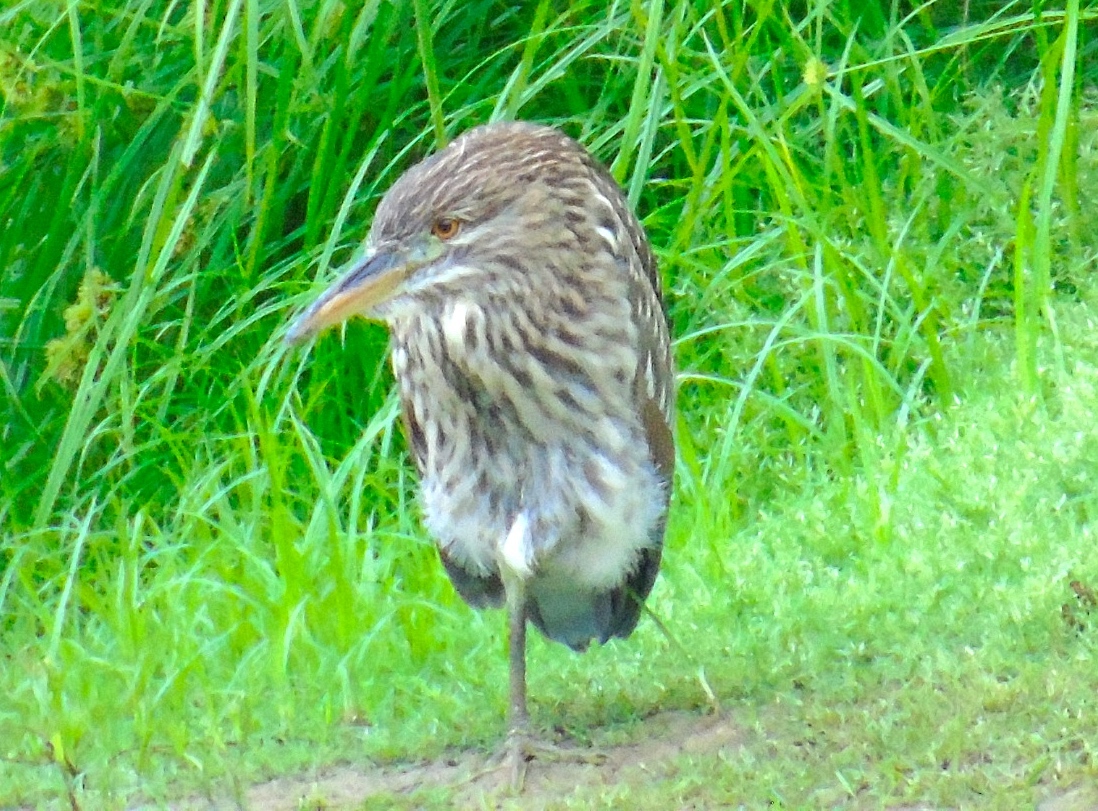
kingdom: Animalia
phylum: Chordata
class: Aves
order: Pelecaniformes
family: Ardeidae
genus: Nycticorax
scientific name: Nycticorax nycticorax
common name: Black-crowned night heron
